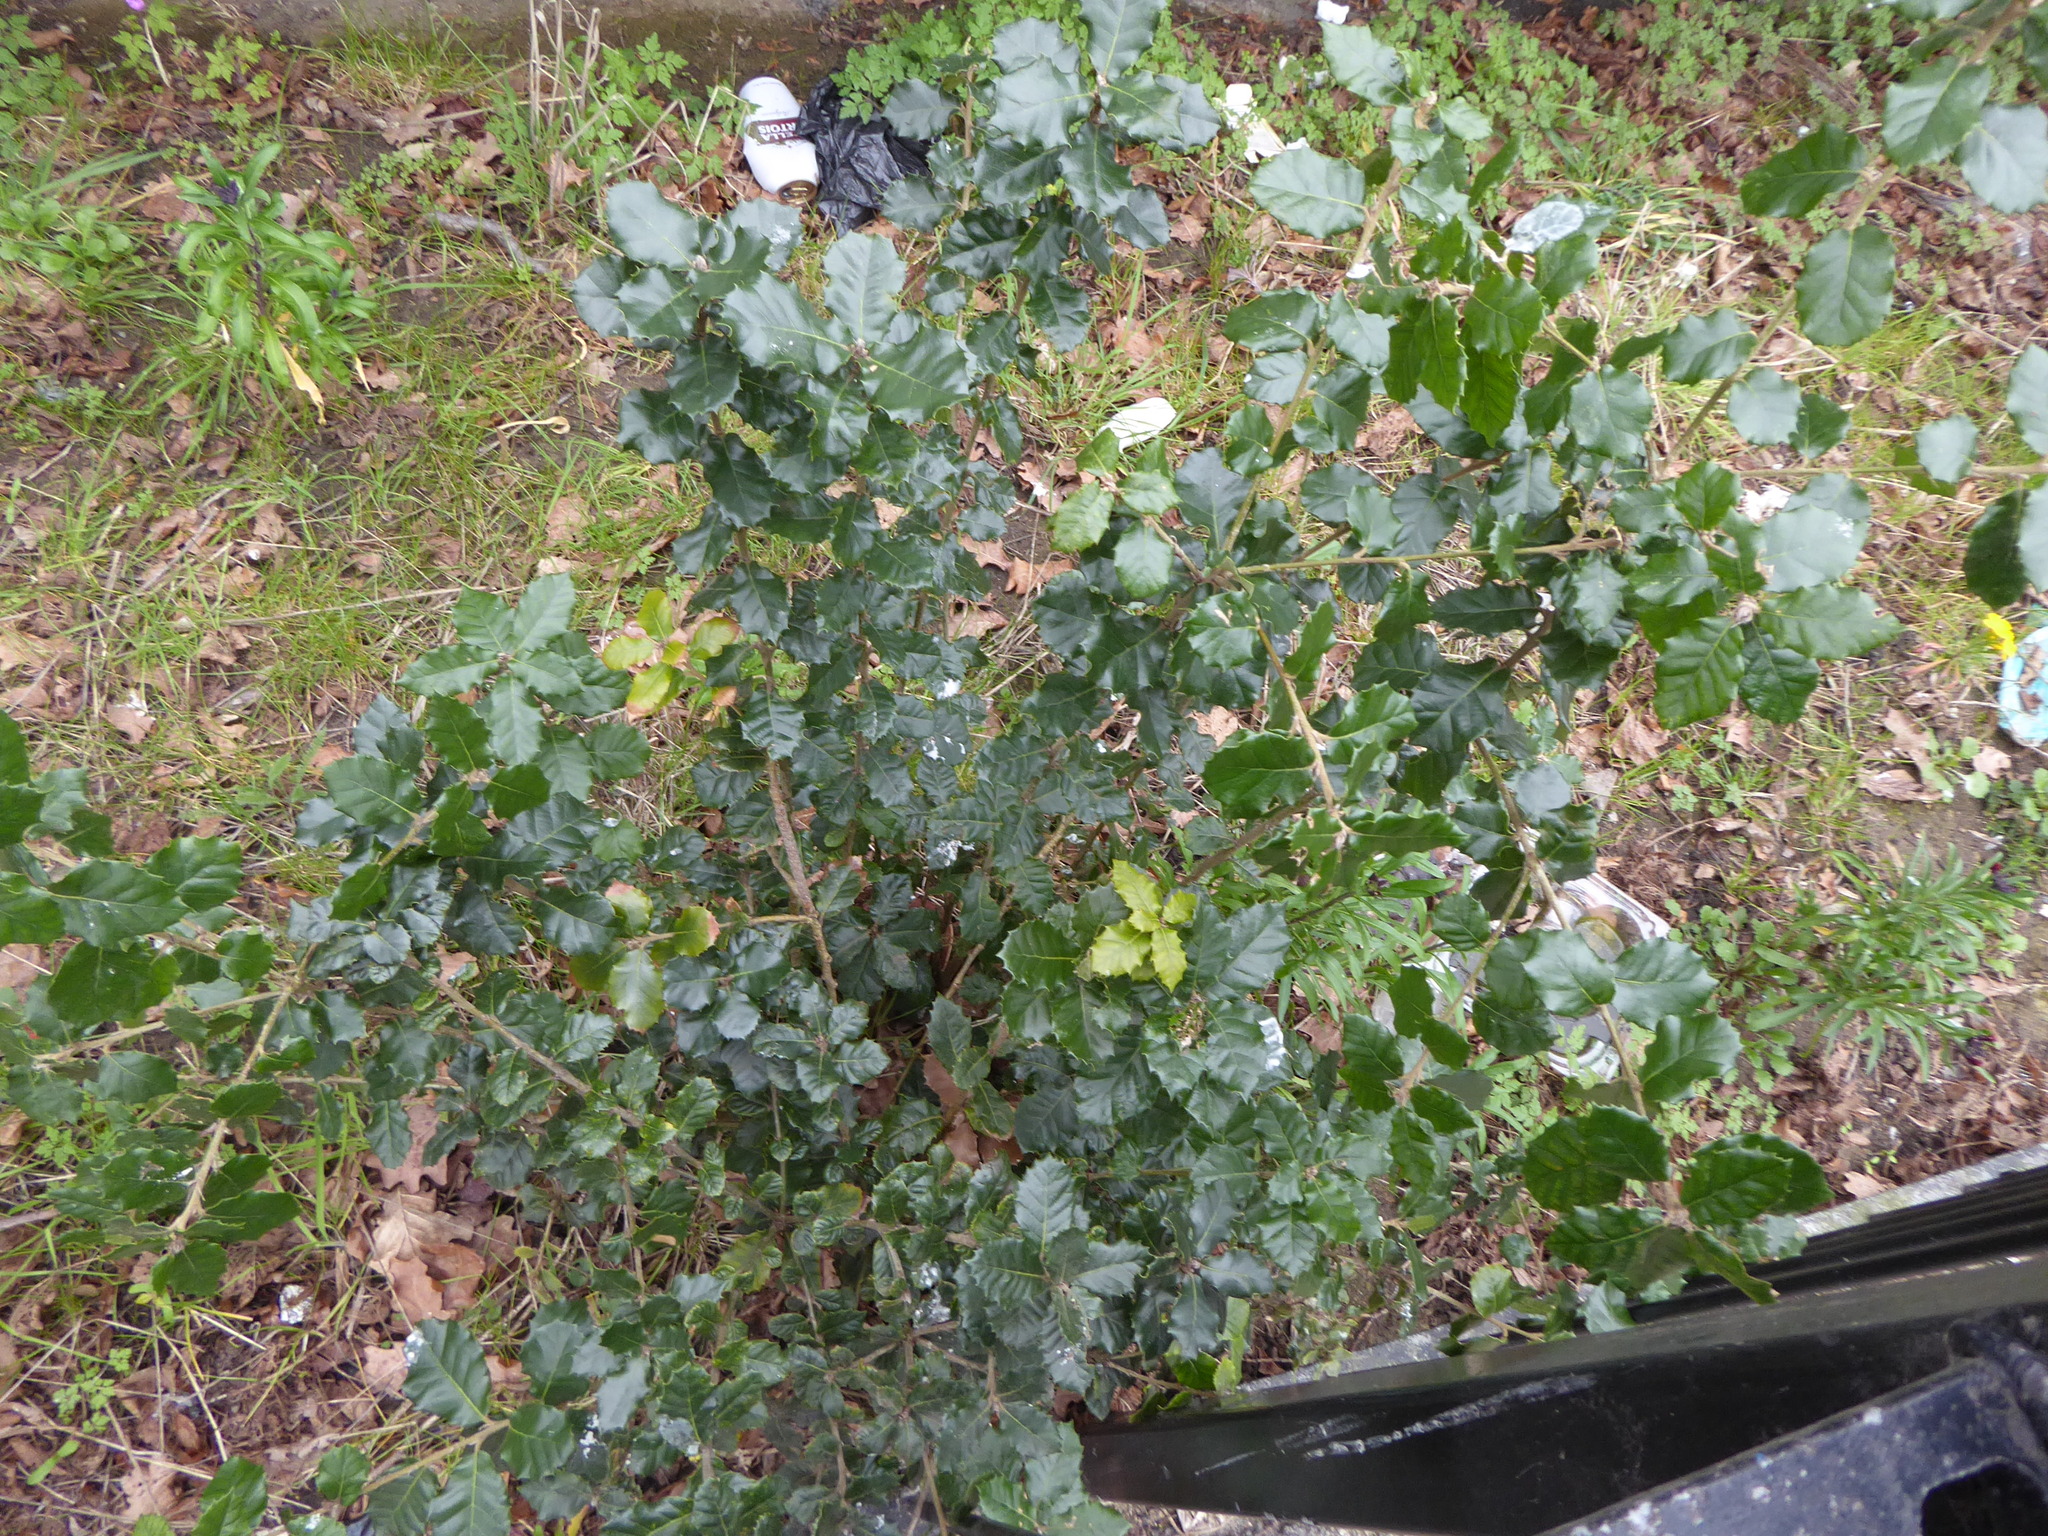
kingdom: Plantae
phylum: Tracheophyta
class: Magnoliopsida
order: Fagales
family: Fagaceae
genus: Quercus
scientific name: Quercus ilex
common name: Evergreen oak
